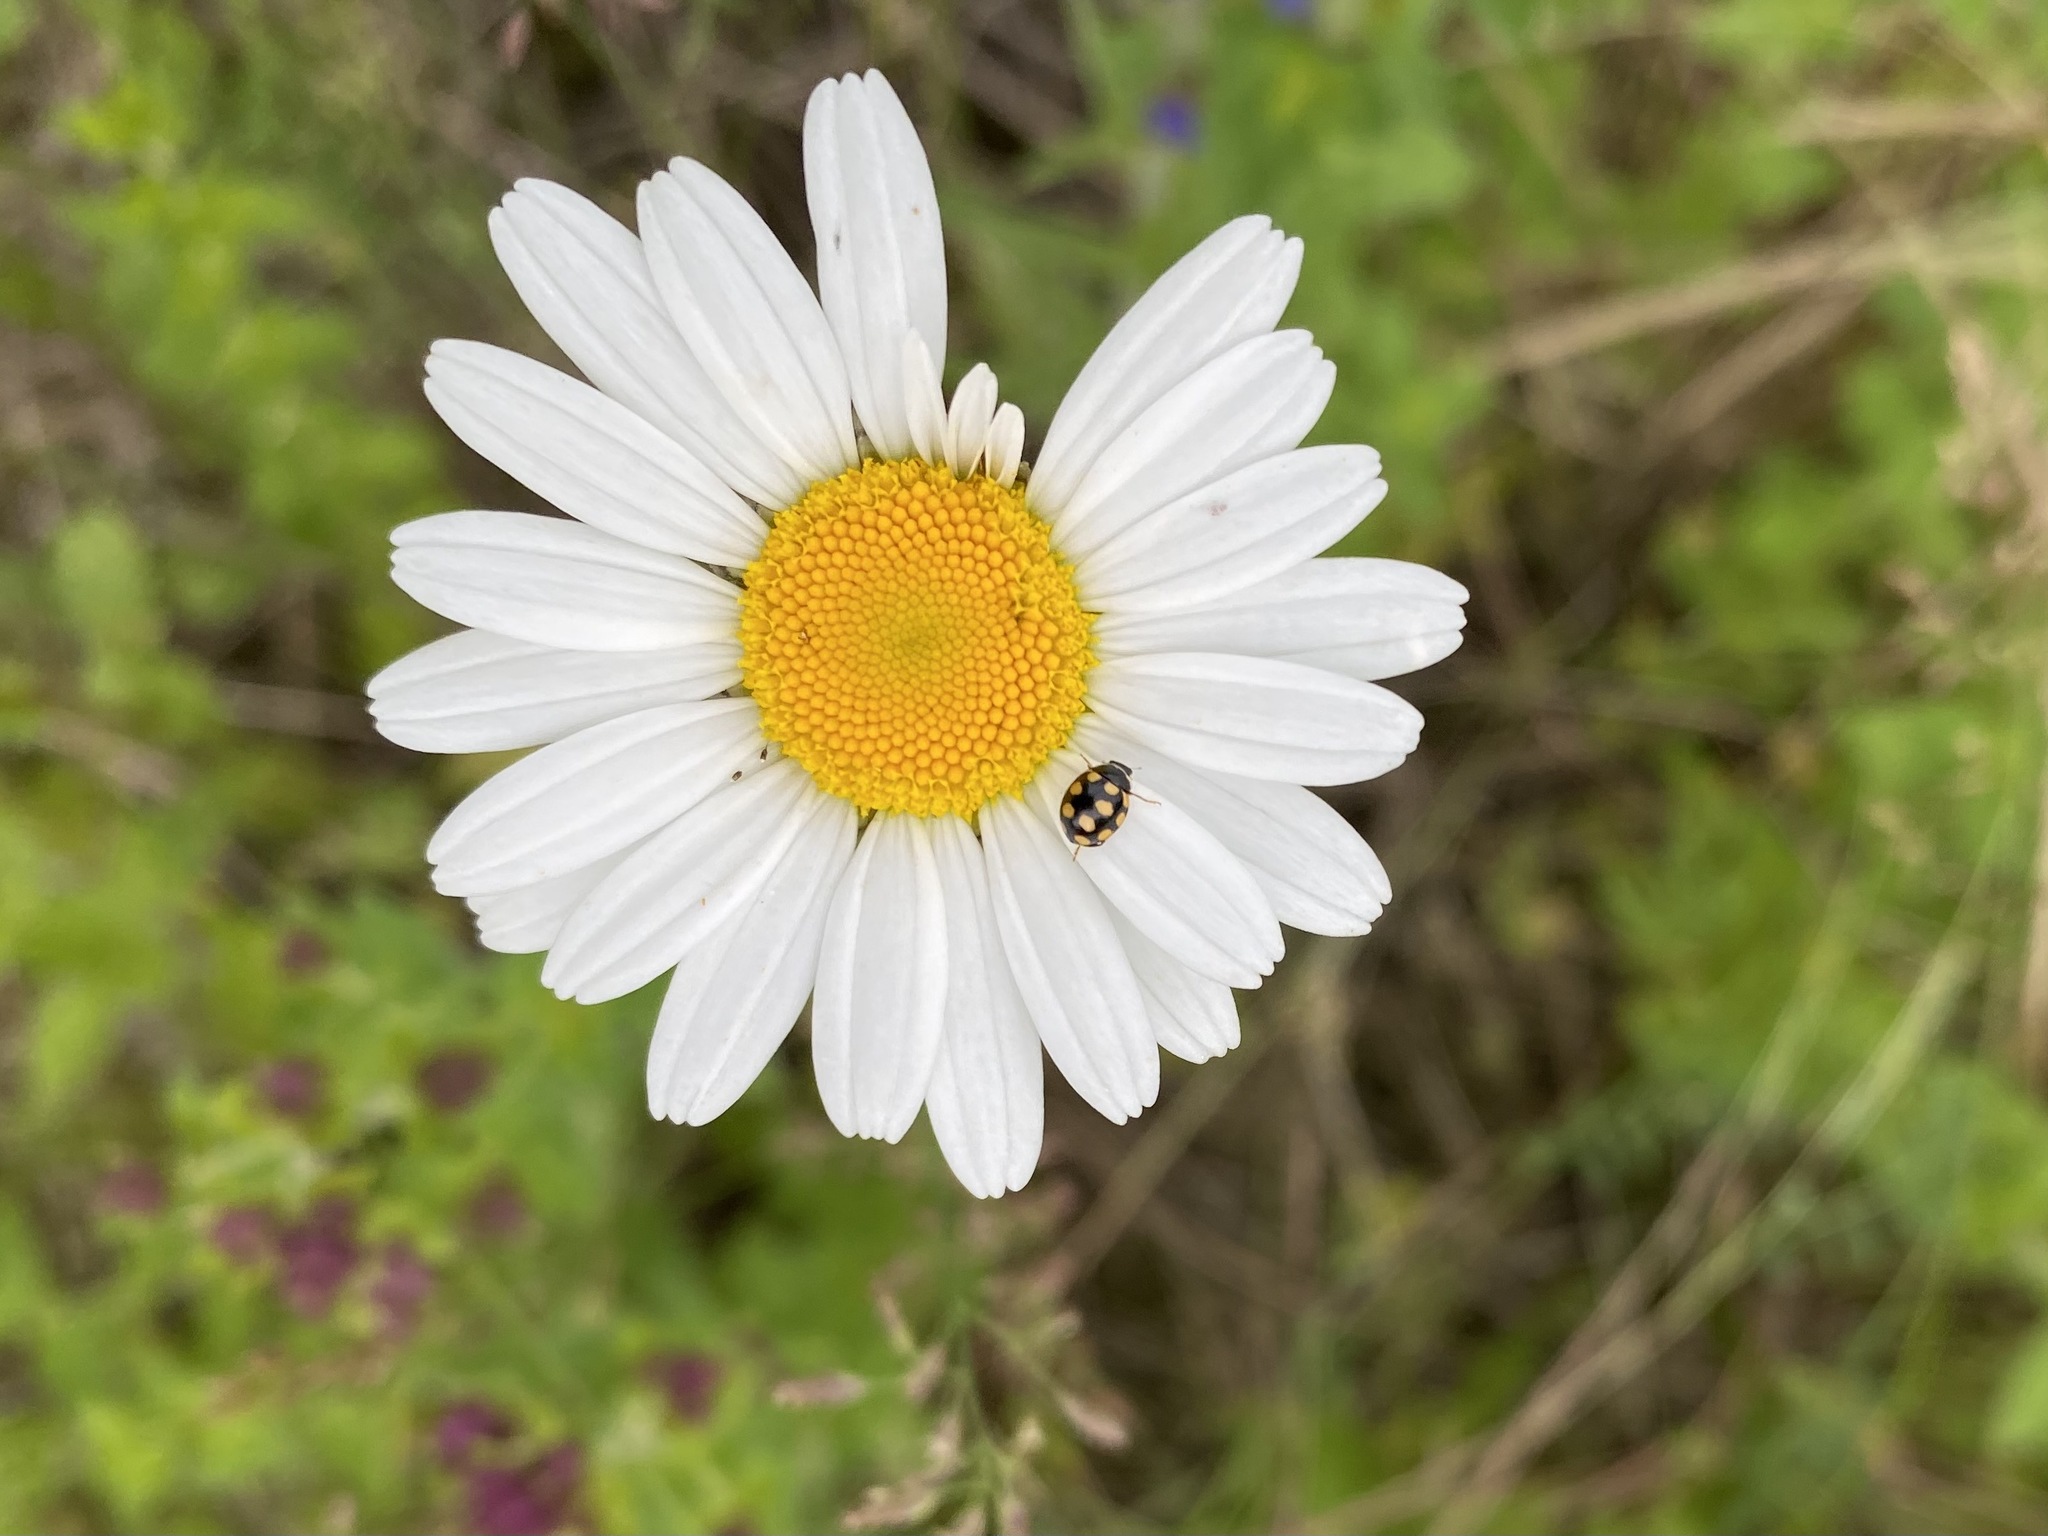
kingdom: Animalia
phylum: Arthropoda
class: Insecta
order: Coleoptera
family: Coccinellidae
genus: Coccinula
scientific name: Coccinula quatuordecimpustulata
